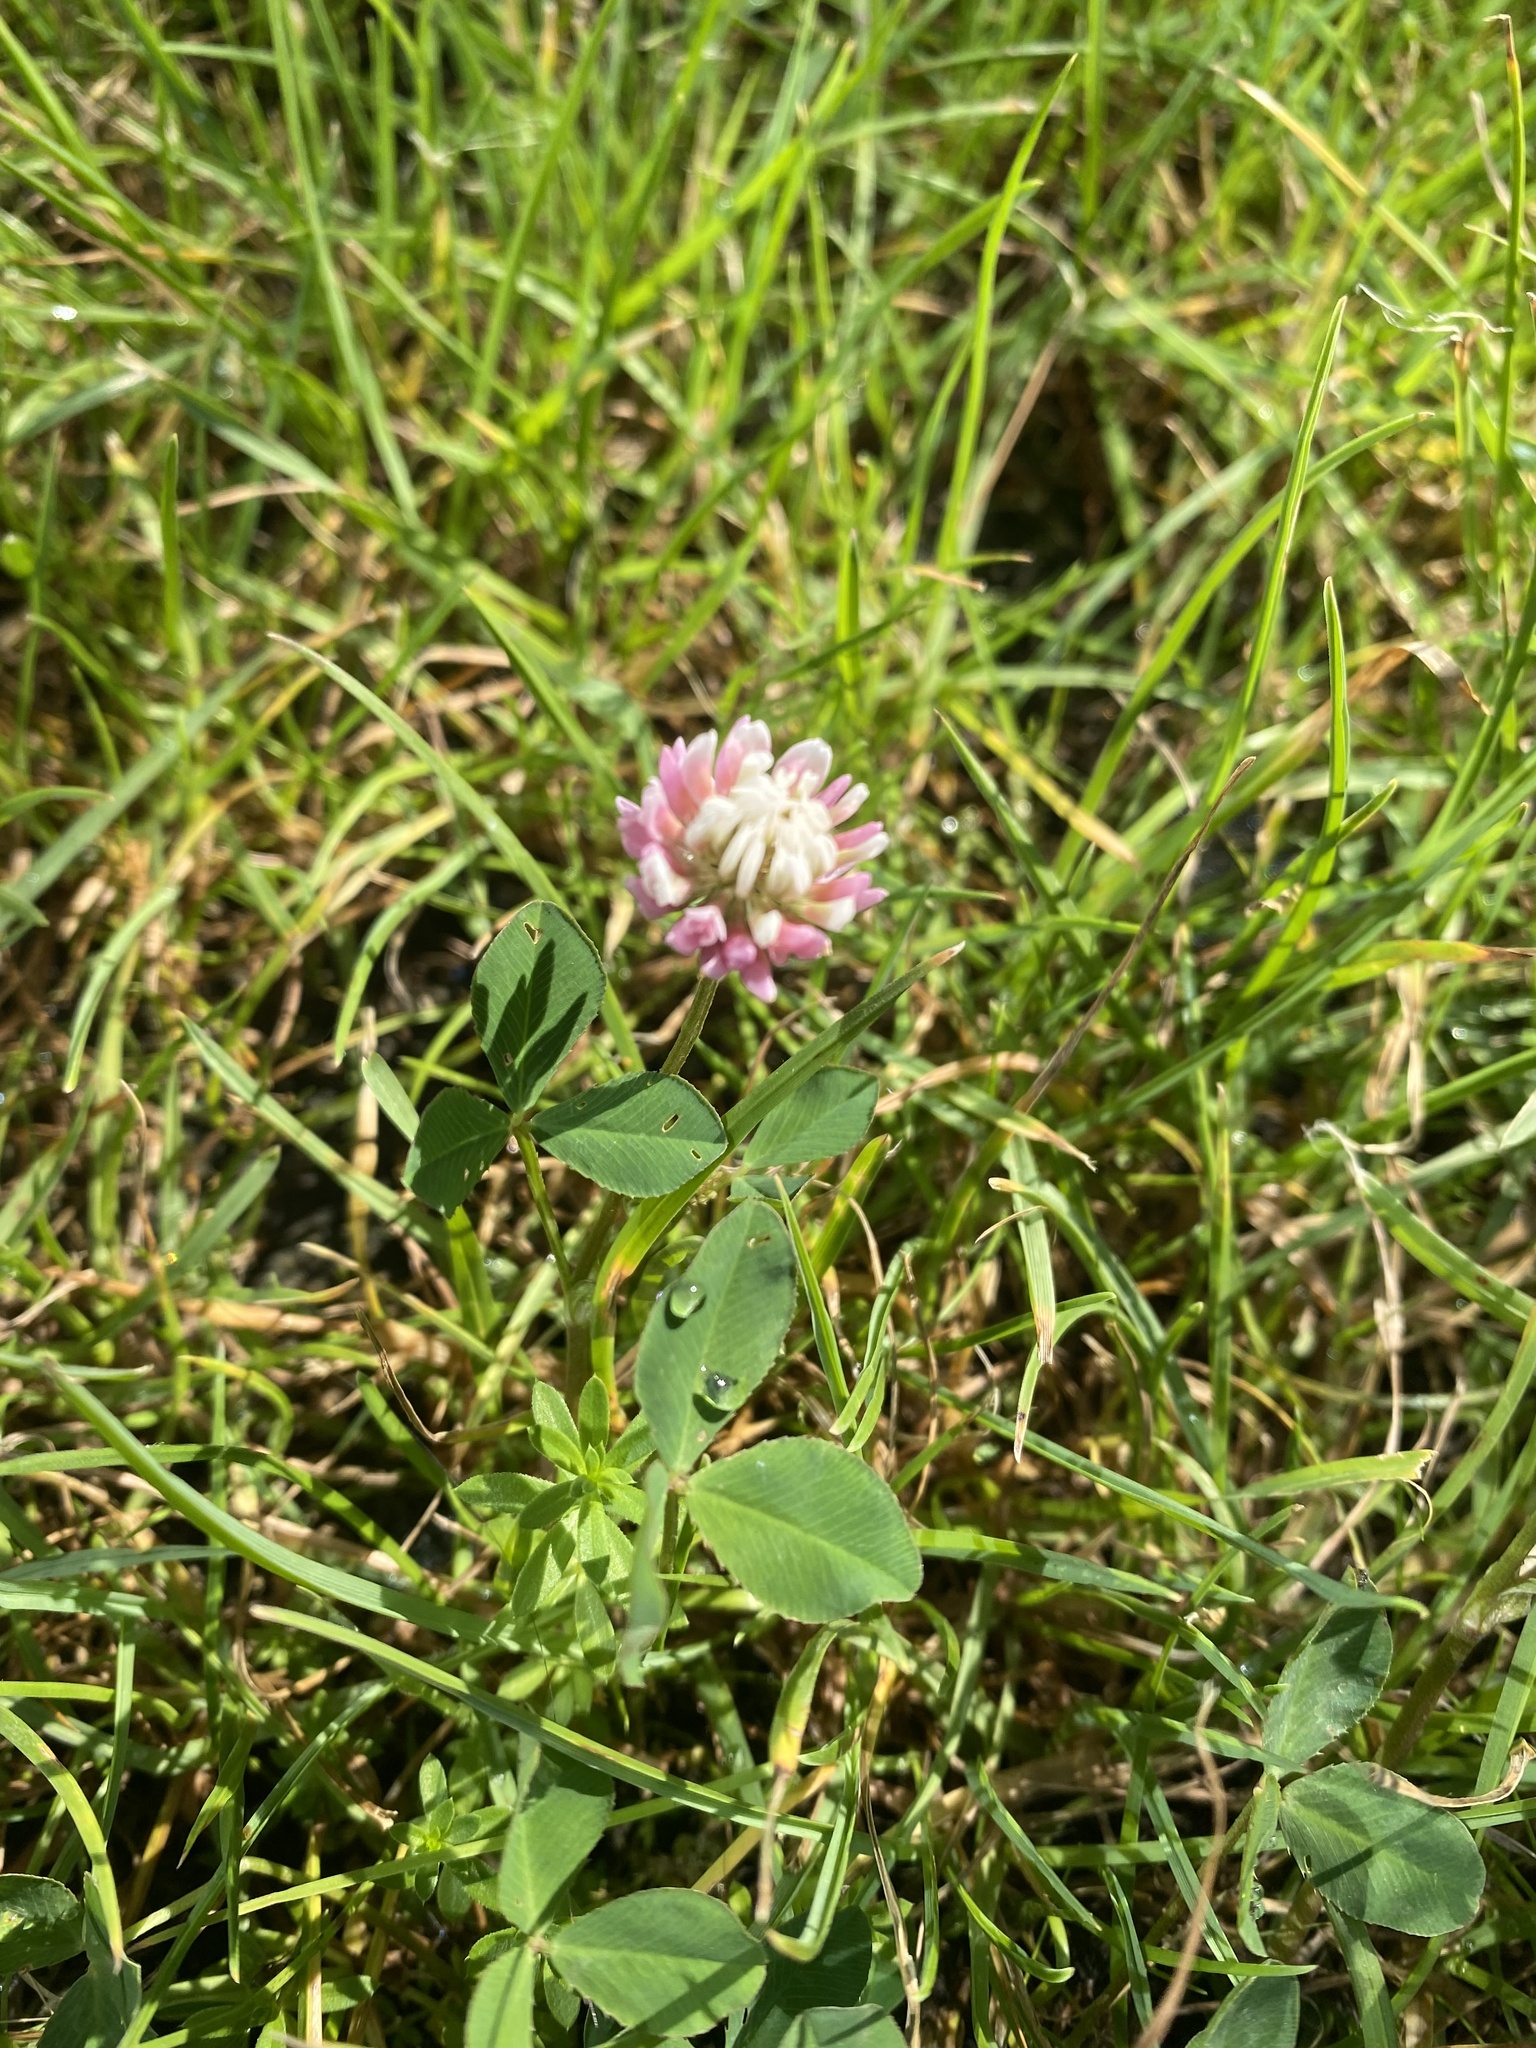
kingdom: Plantae
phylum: Tracheophyta
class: Magnoliopsida
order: Fabales
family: Fabaceae
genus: Trifolium
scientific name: Trifolium hybridum
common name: Alsike clover
